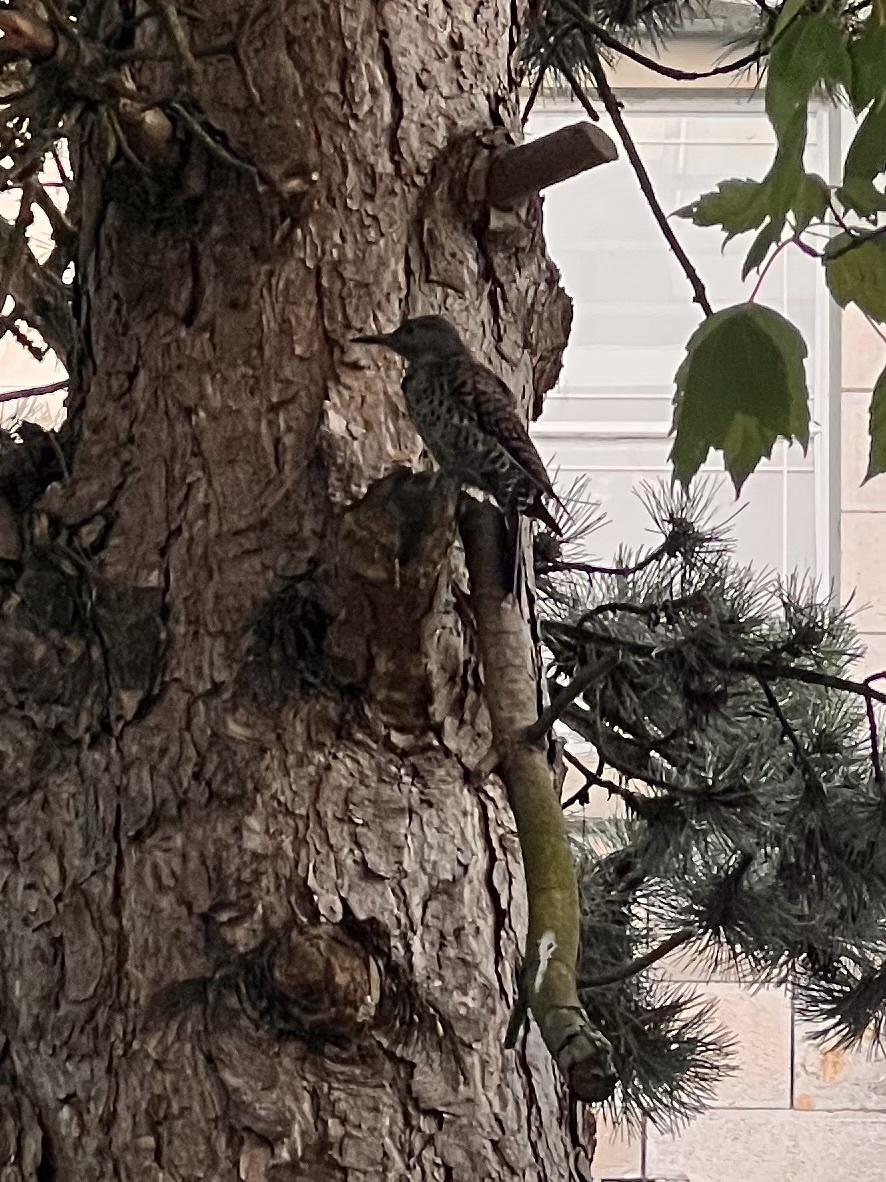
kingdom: Animalia
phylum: Chordata
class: Aves
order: Piciformes
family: Picidae
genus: Colaptes
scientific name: Colaptes auratus
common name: Northern flicker
